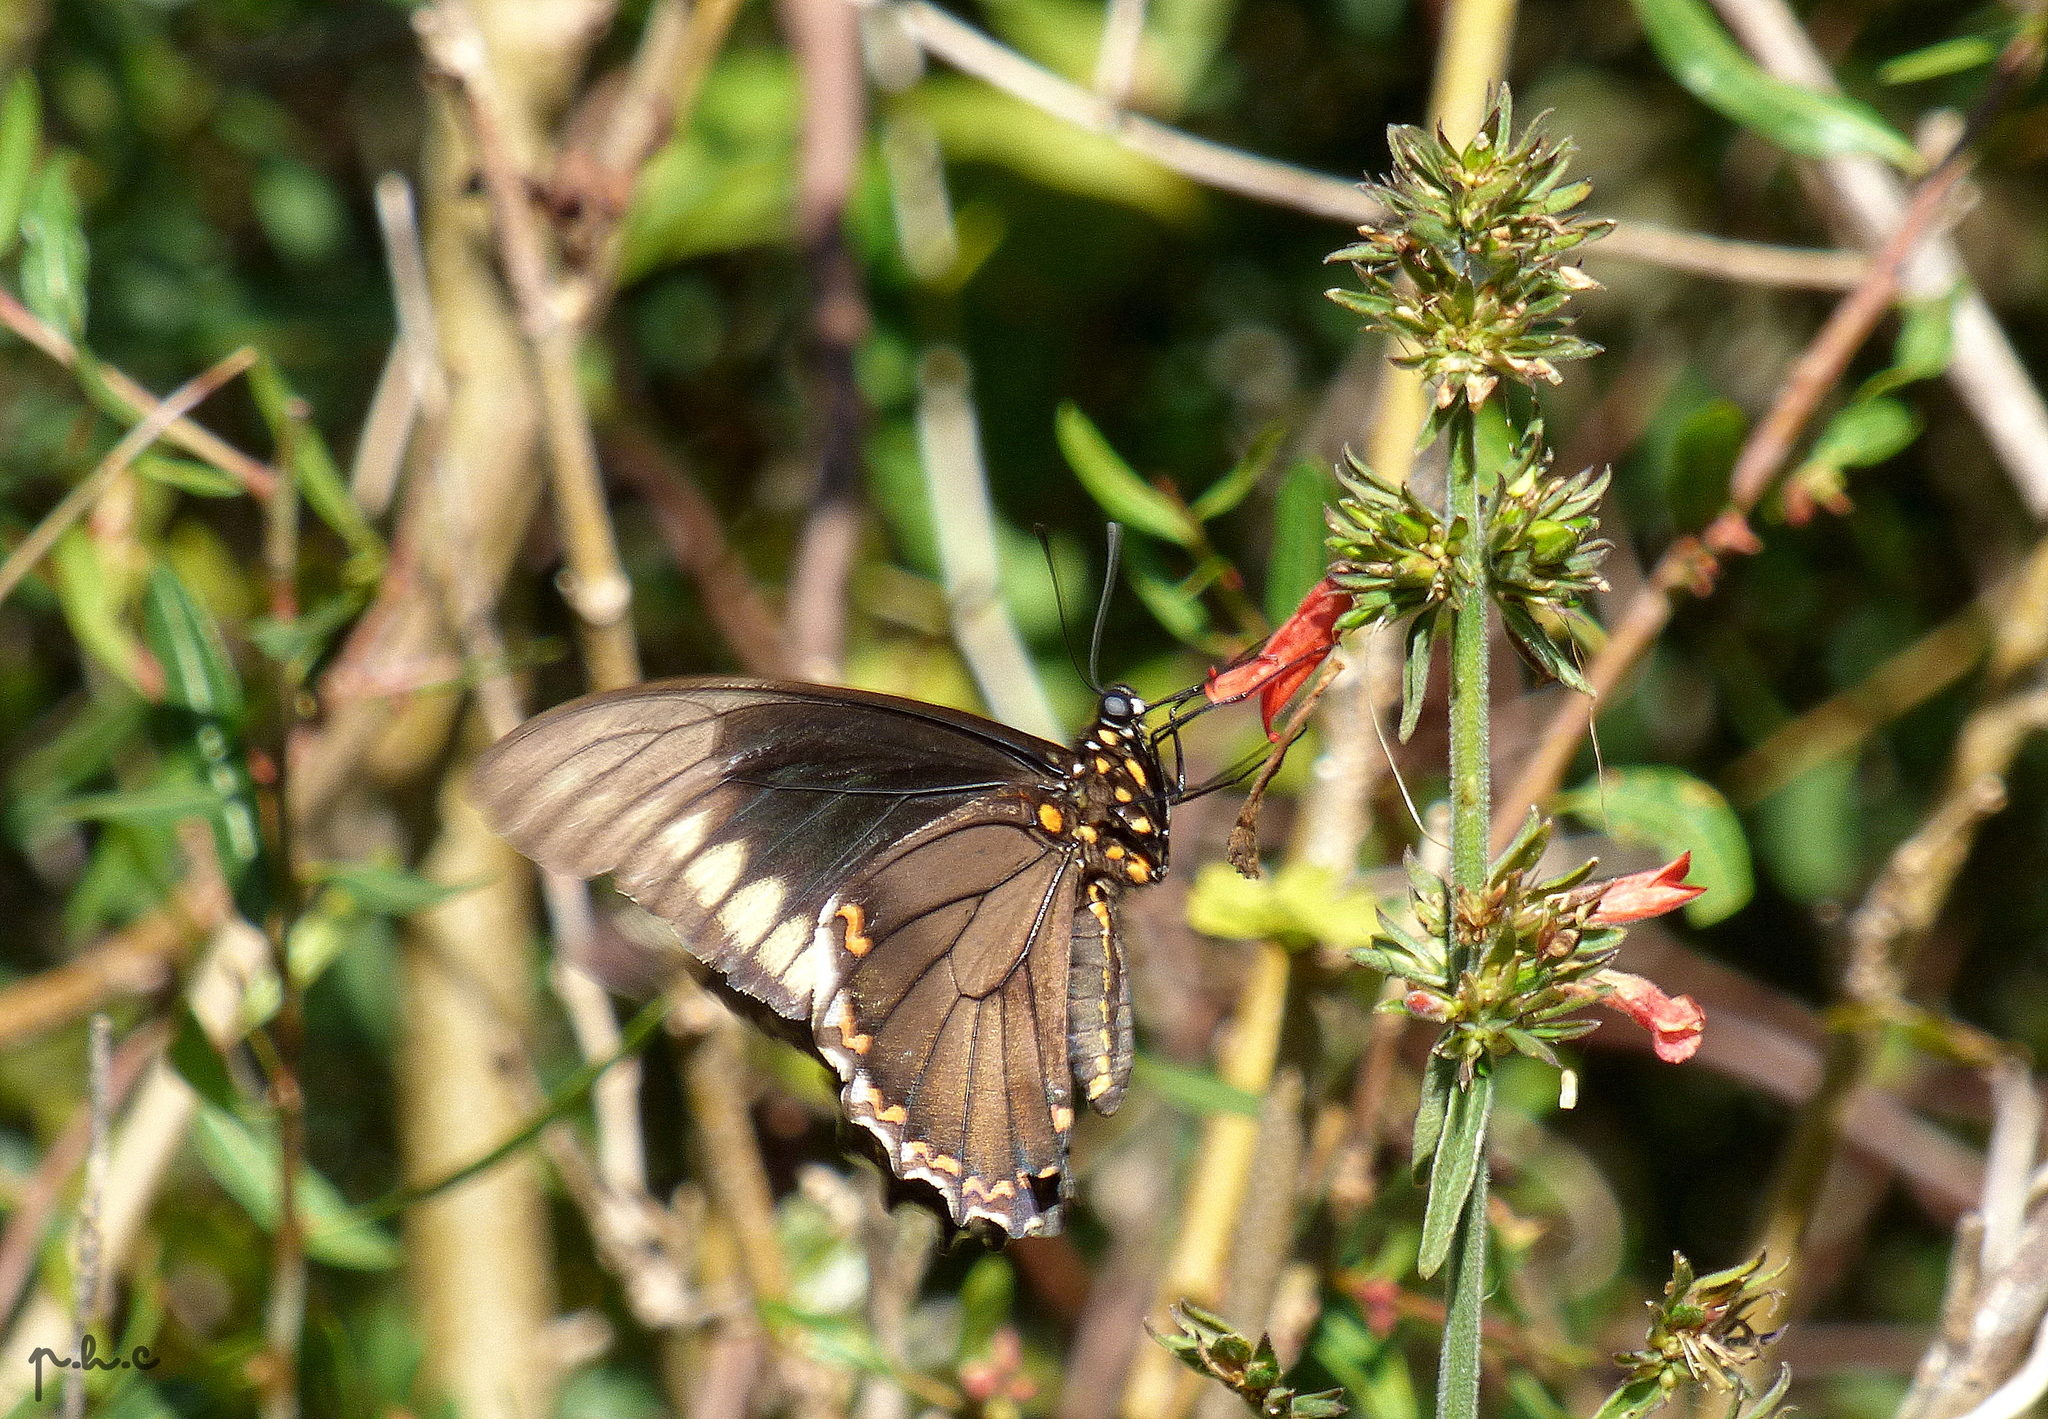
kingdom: Animalia
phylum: Arthropoda
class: Insecta
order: Lepidoptera
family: Papilionidae
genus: Battus
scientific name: Battus polydamas
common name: Polydamas swallowtail
